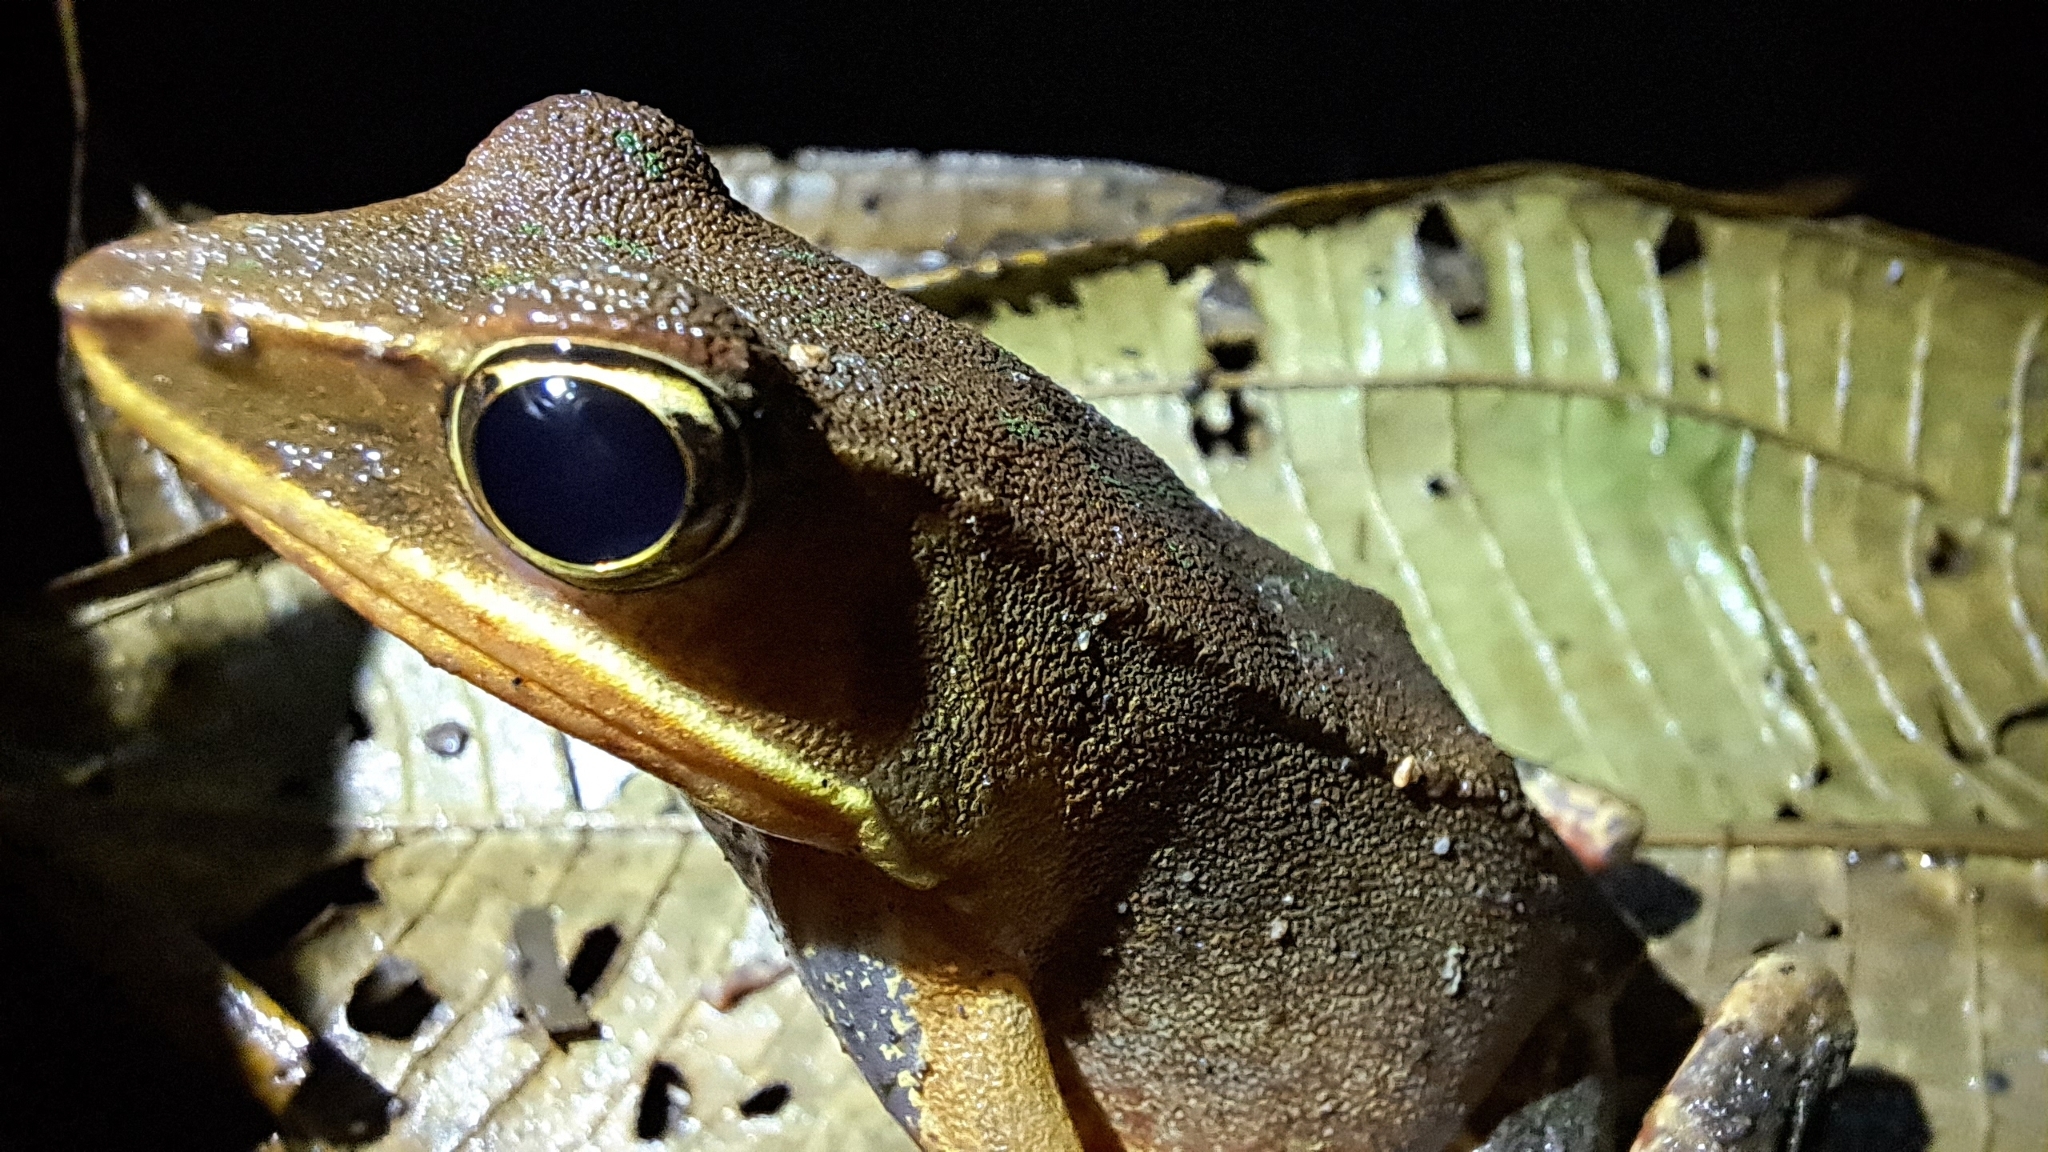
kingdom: Animalia
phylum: Chordata
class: Amphibia
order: Anura
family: Ranidae
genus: Lithobates
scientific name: Lithobates warszewitschii
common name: Warszewitsch's frog
